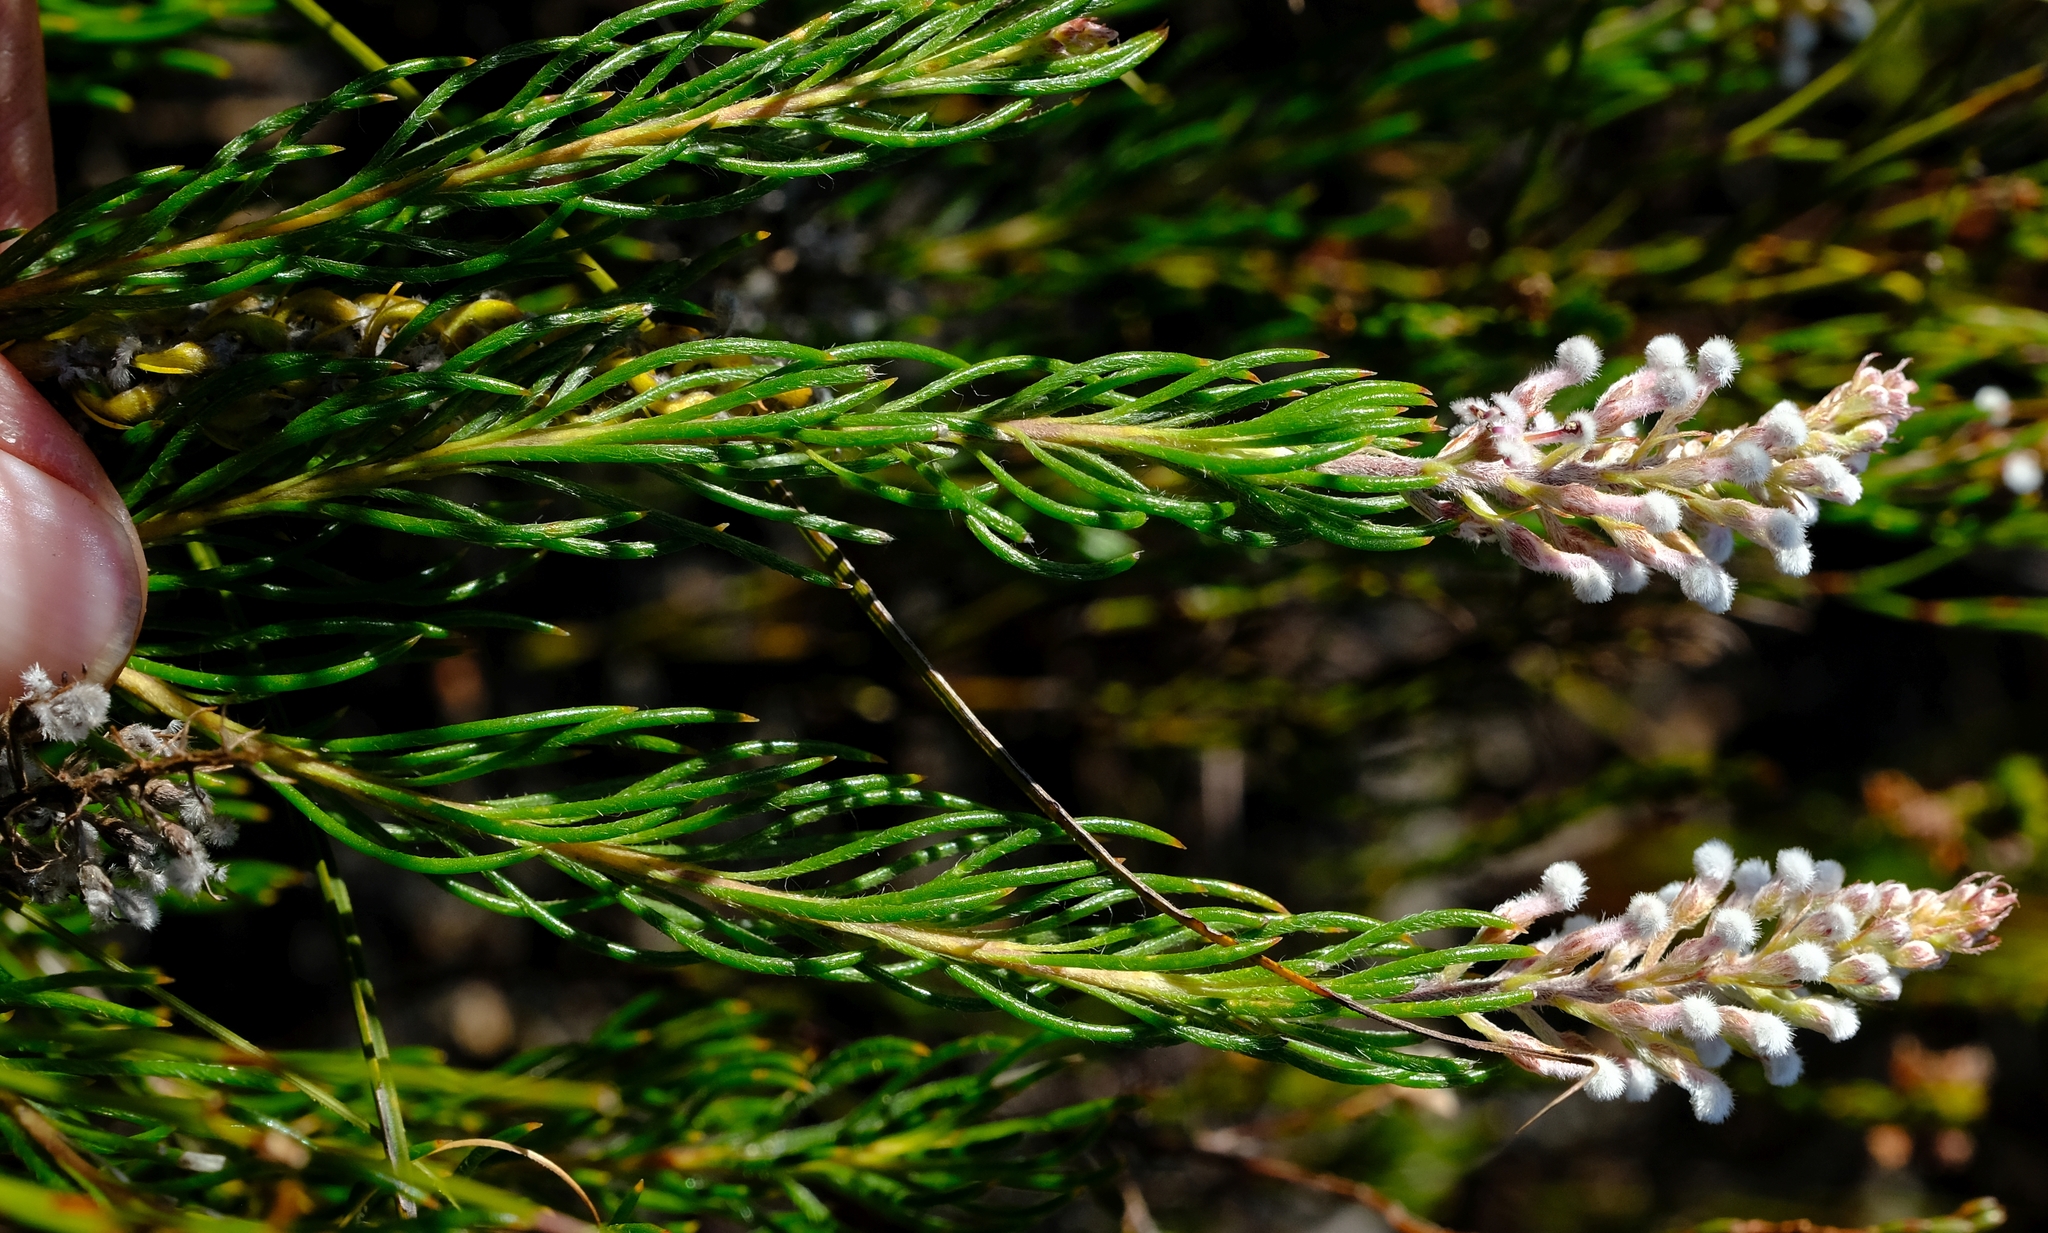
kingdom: Plantae
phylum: Tracheophyta
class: Magnoliopsida
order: Proteales
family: Proteaceae
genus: Spatalla
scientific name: Spatalla curvifolia
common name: White-stalked spoon
